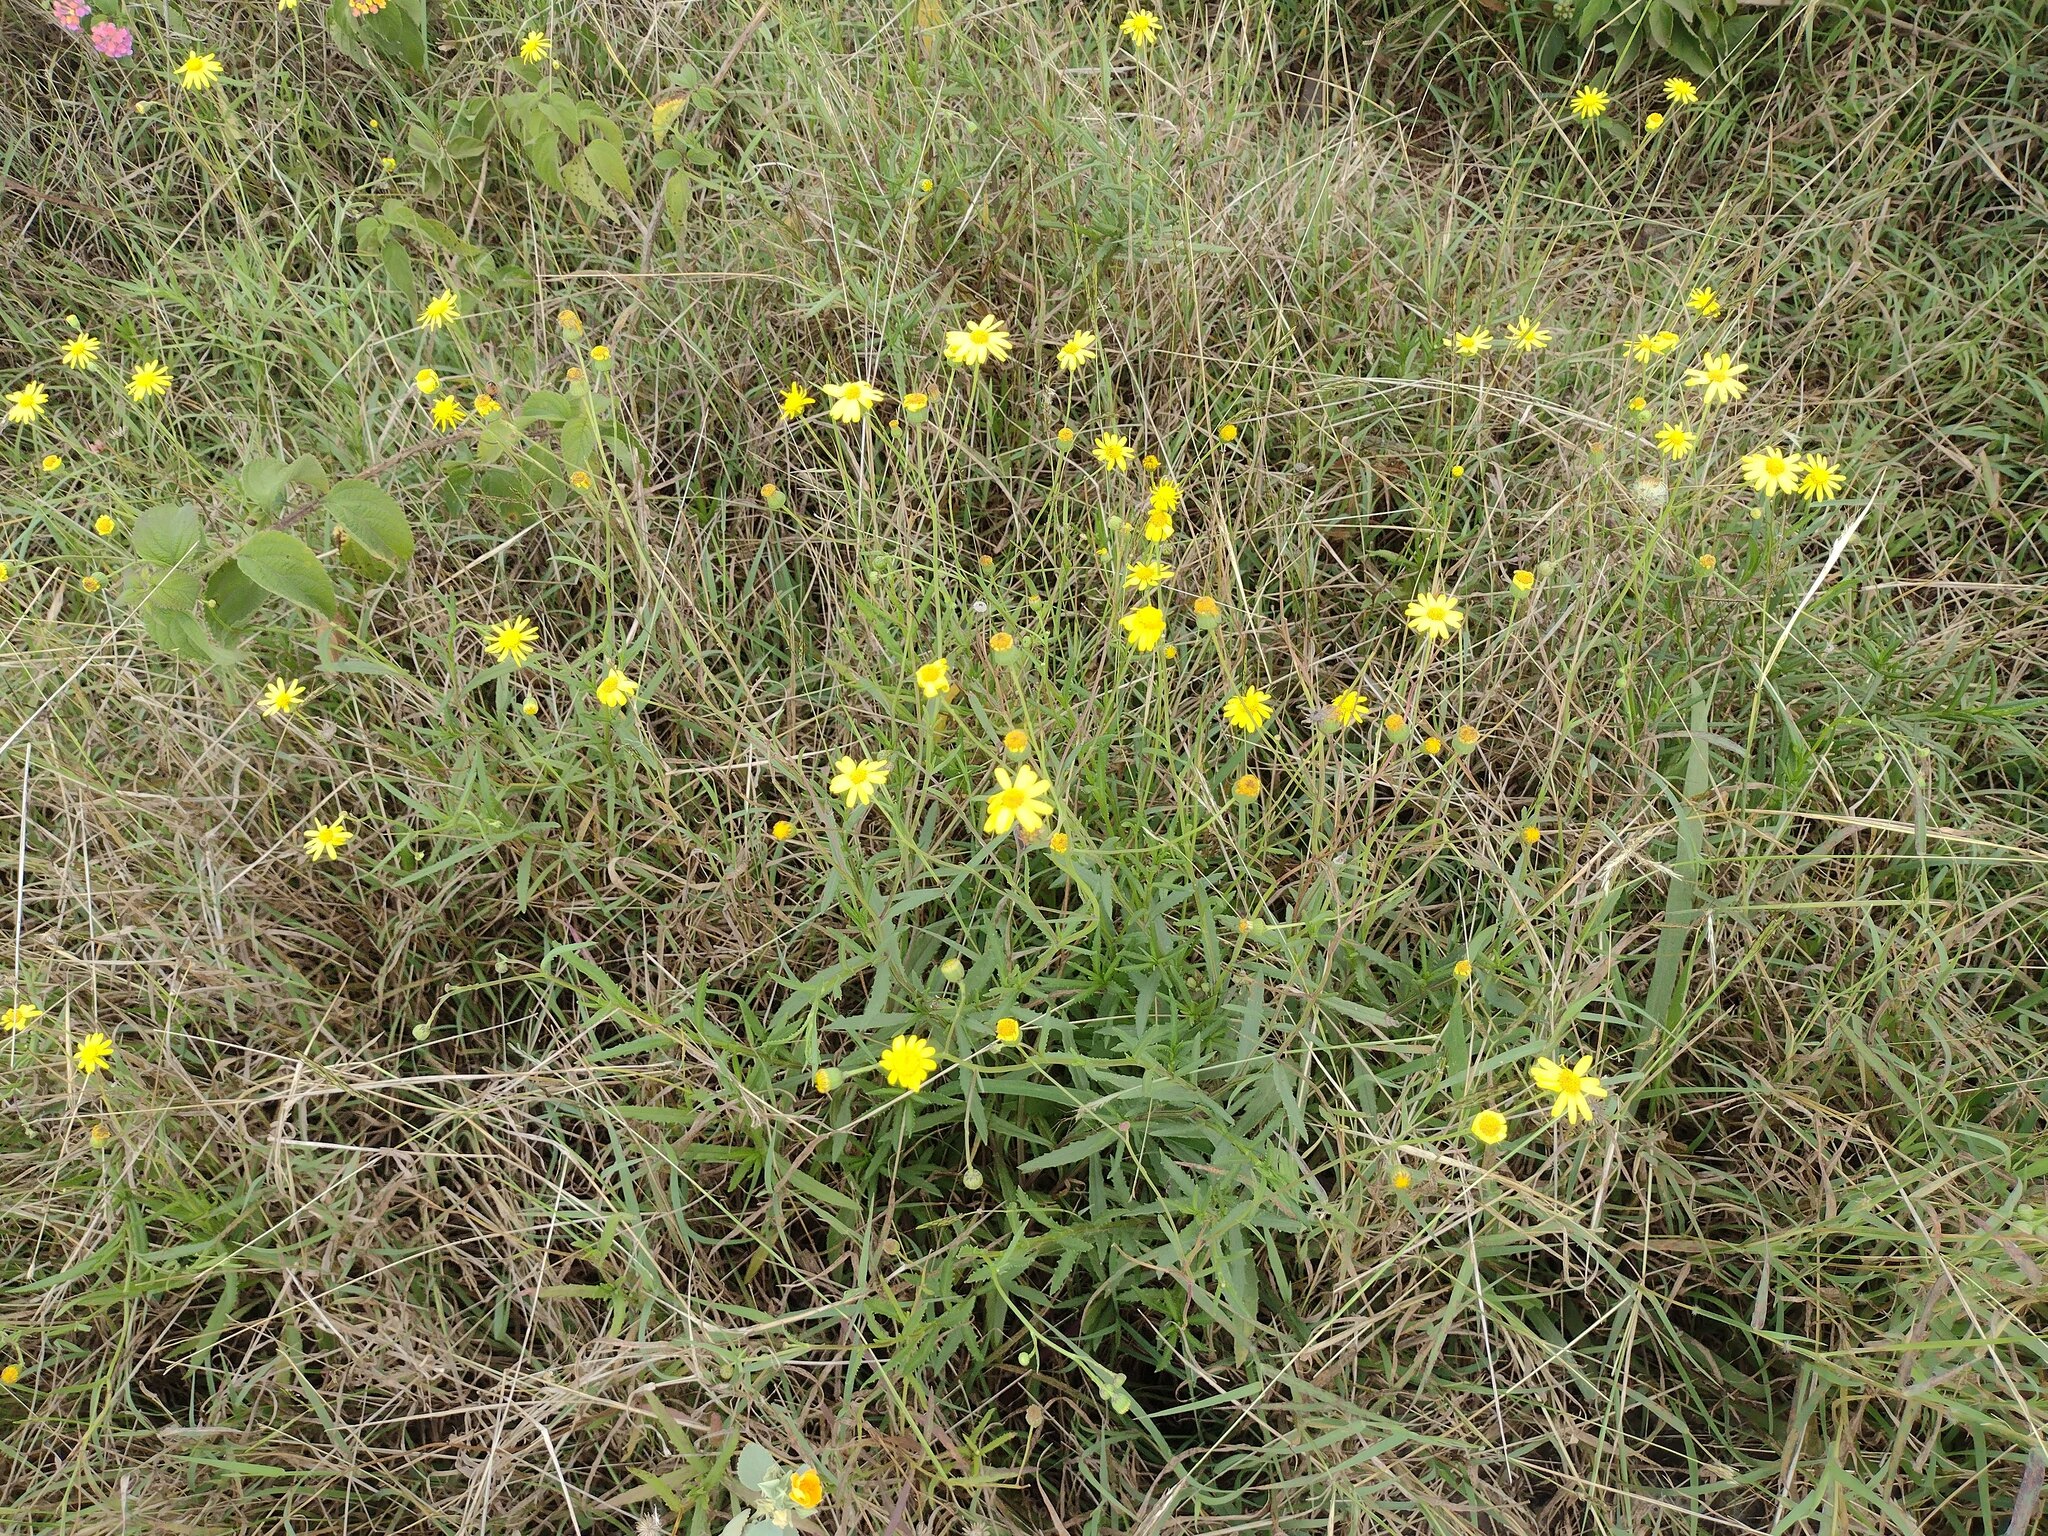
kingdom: Plantae
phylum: Tracheophyta
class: Magnoliopsida
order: Asterales
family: Asteraceae
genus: Senecio
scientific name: Senecio madagascariensis
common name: Madagascar ragwort
